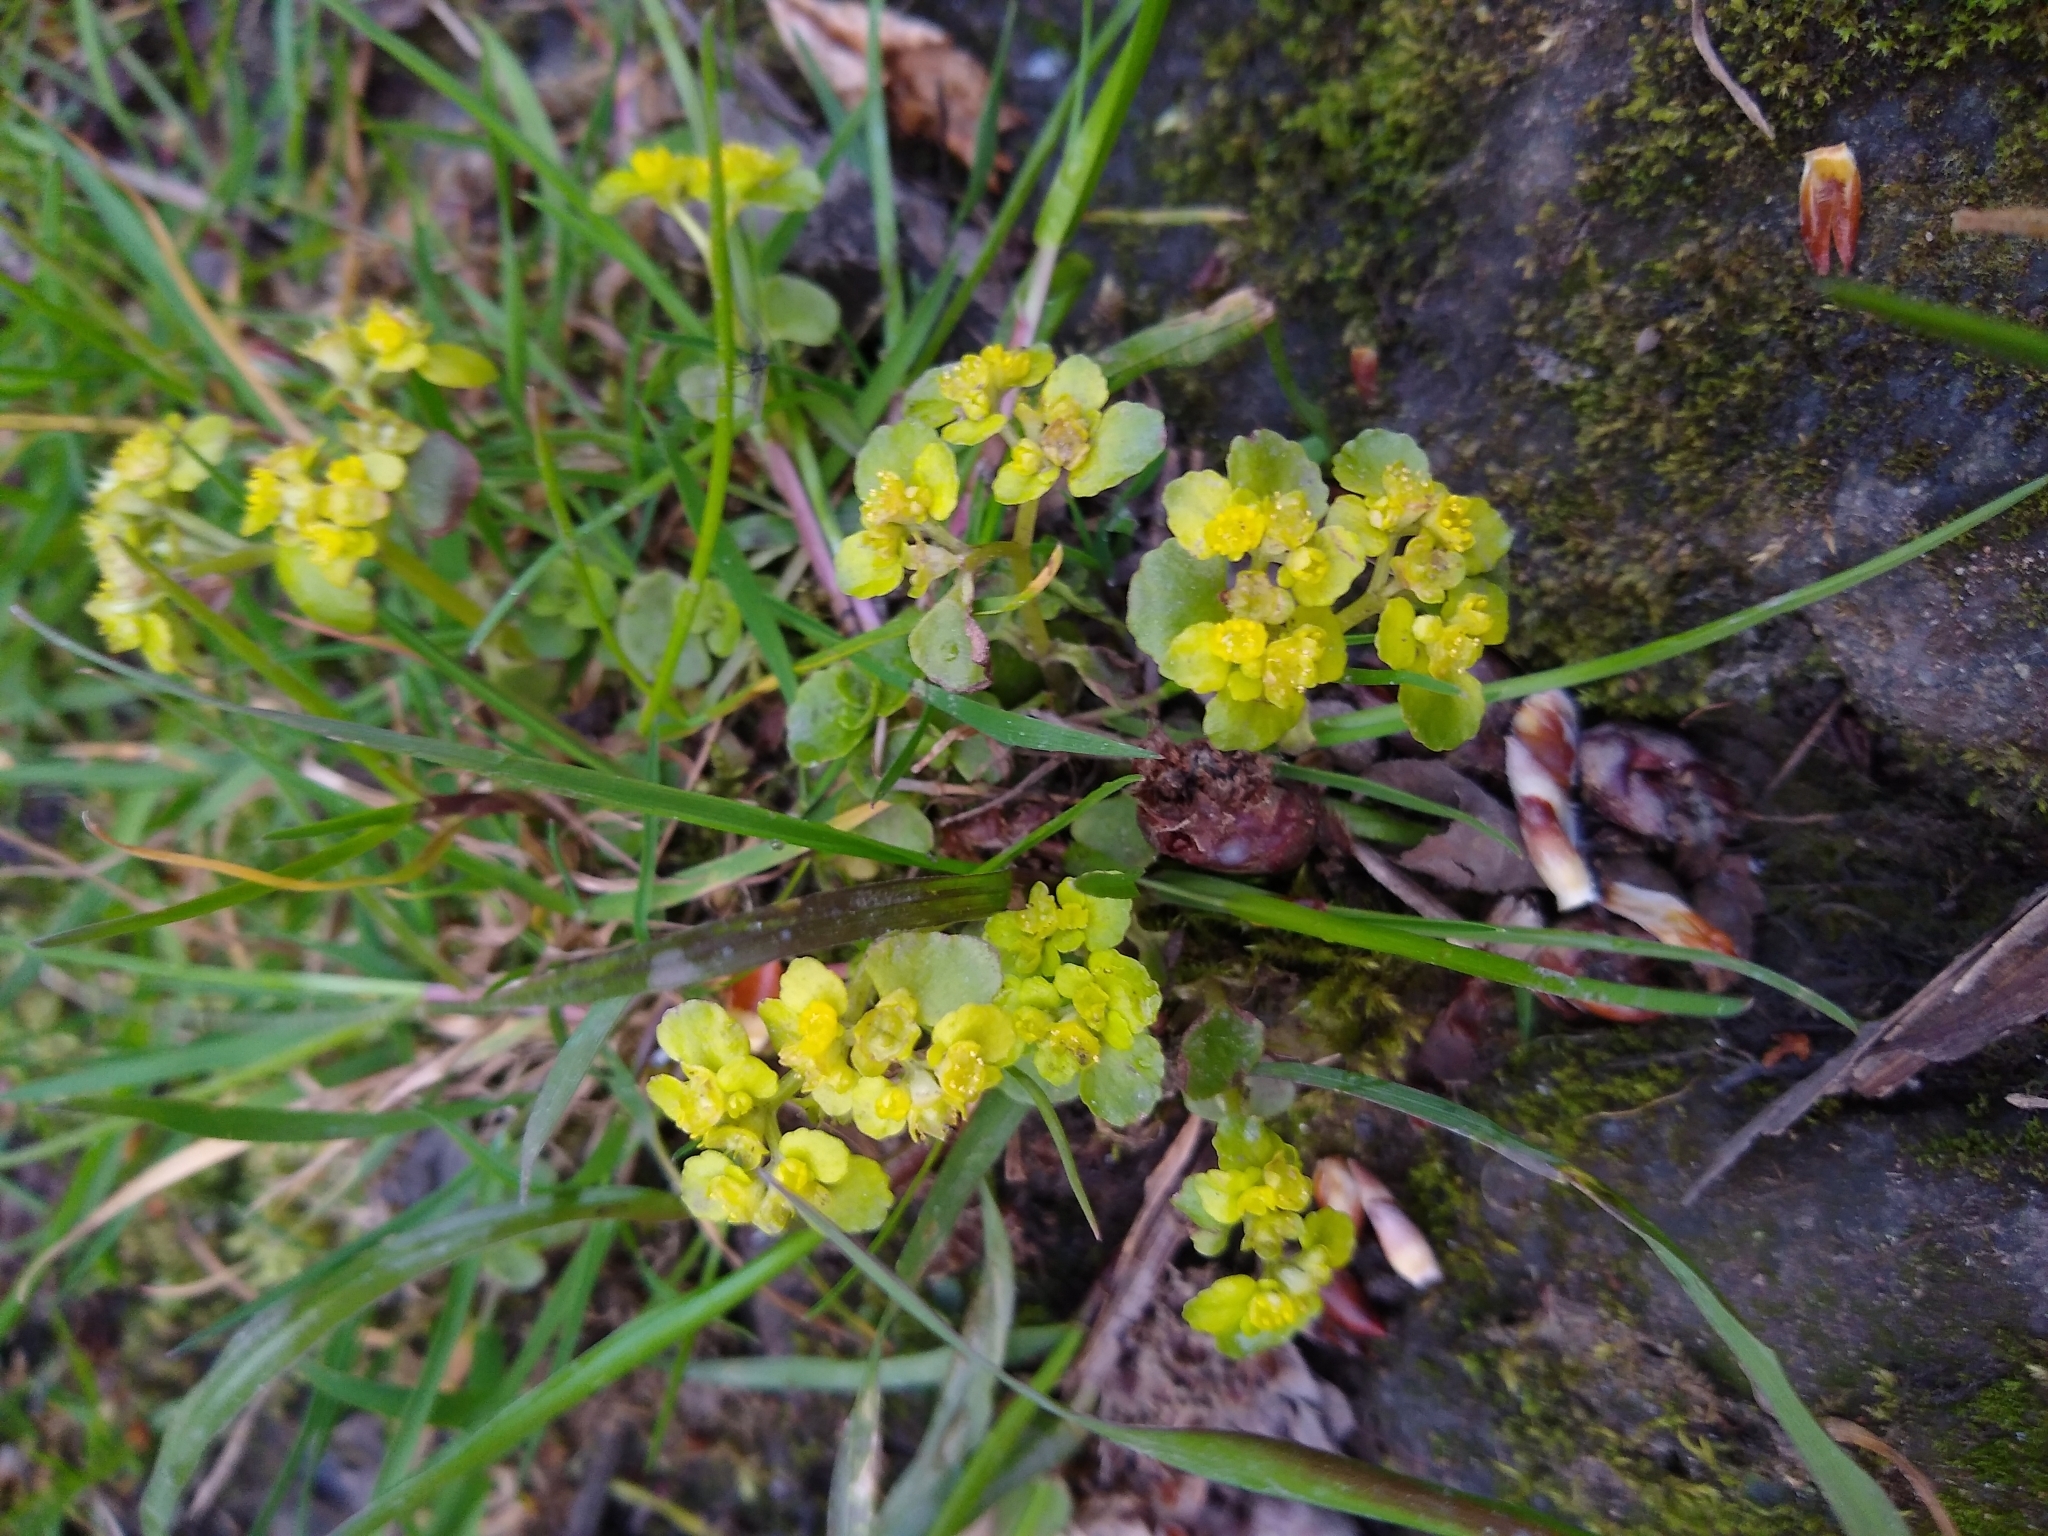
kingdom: Plantae
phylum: Tracheophyta
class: Magnoliopsida
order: Saxifragales
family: Saxifragaceae
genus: Chrysosplenium
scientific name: Chrysosplenium oppositifolium
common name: Opposite-leaved golden-saxifrage
